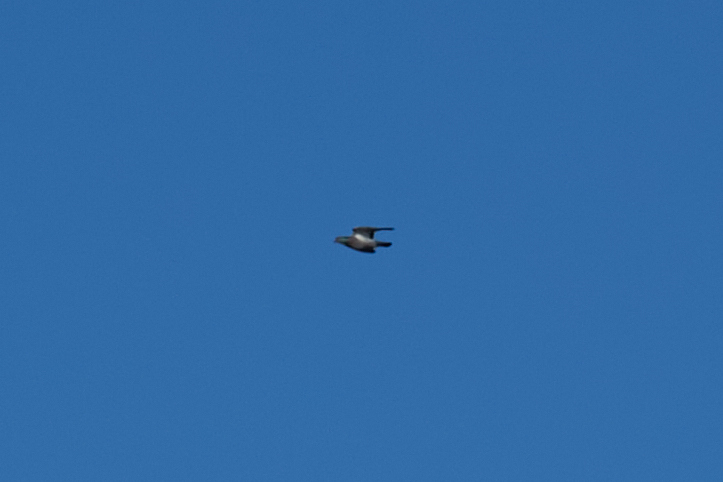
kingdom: Animalia
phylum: Chordata
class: Aves
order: Columbiformes
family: Columbidae
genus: Columba
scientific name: Columba livia
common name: Rock pigeon
